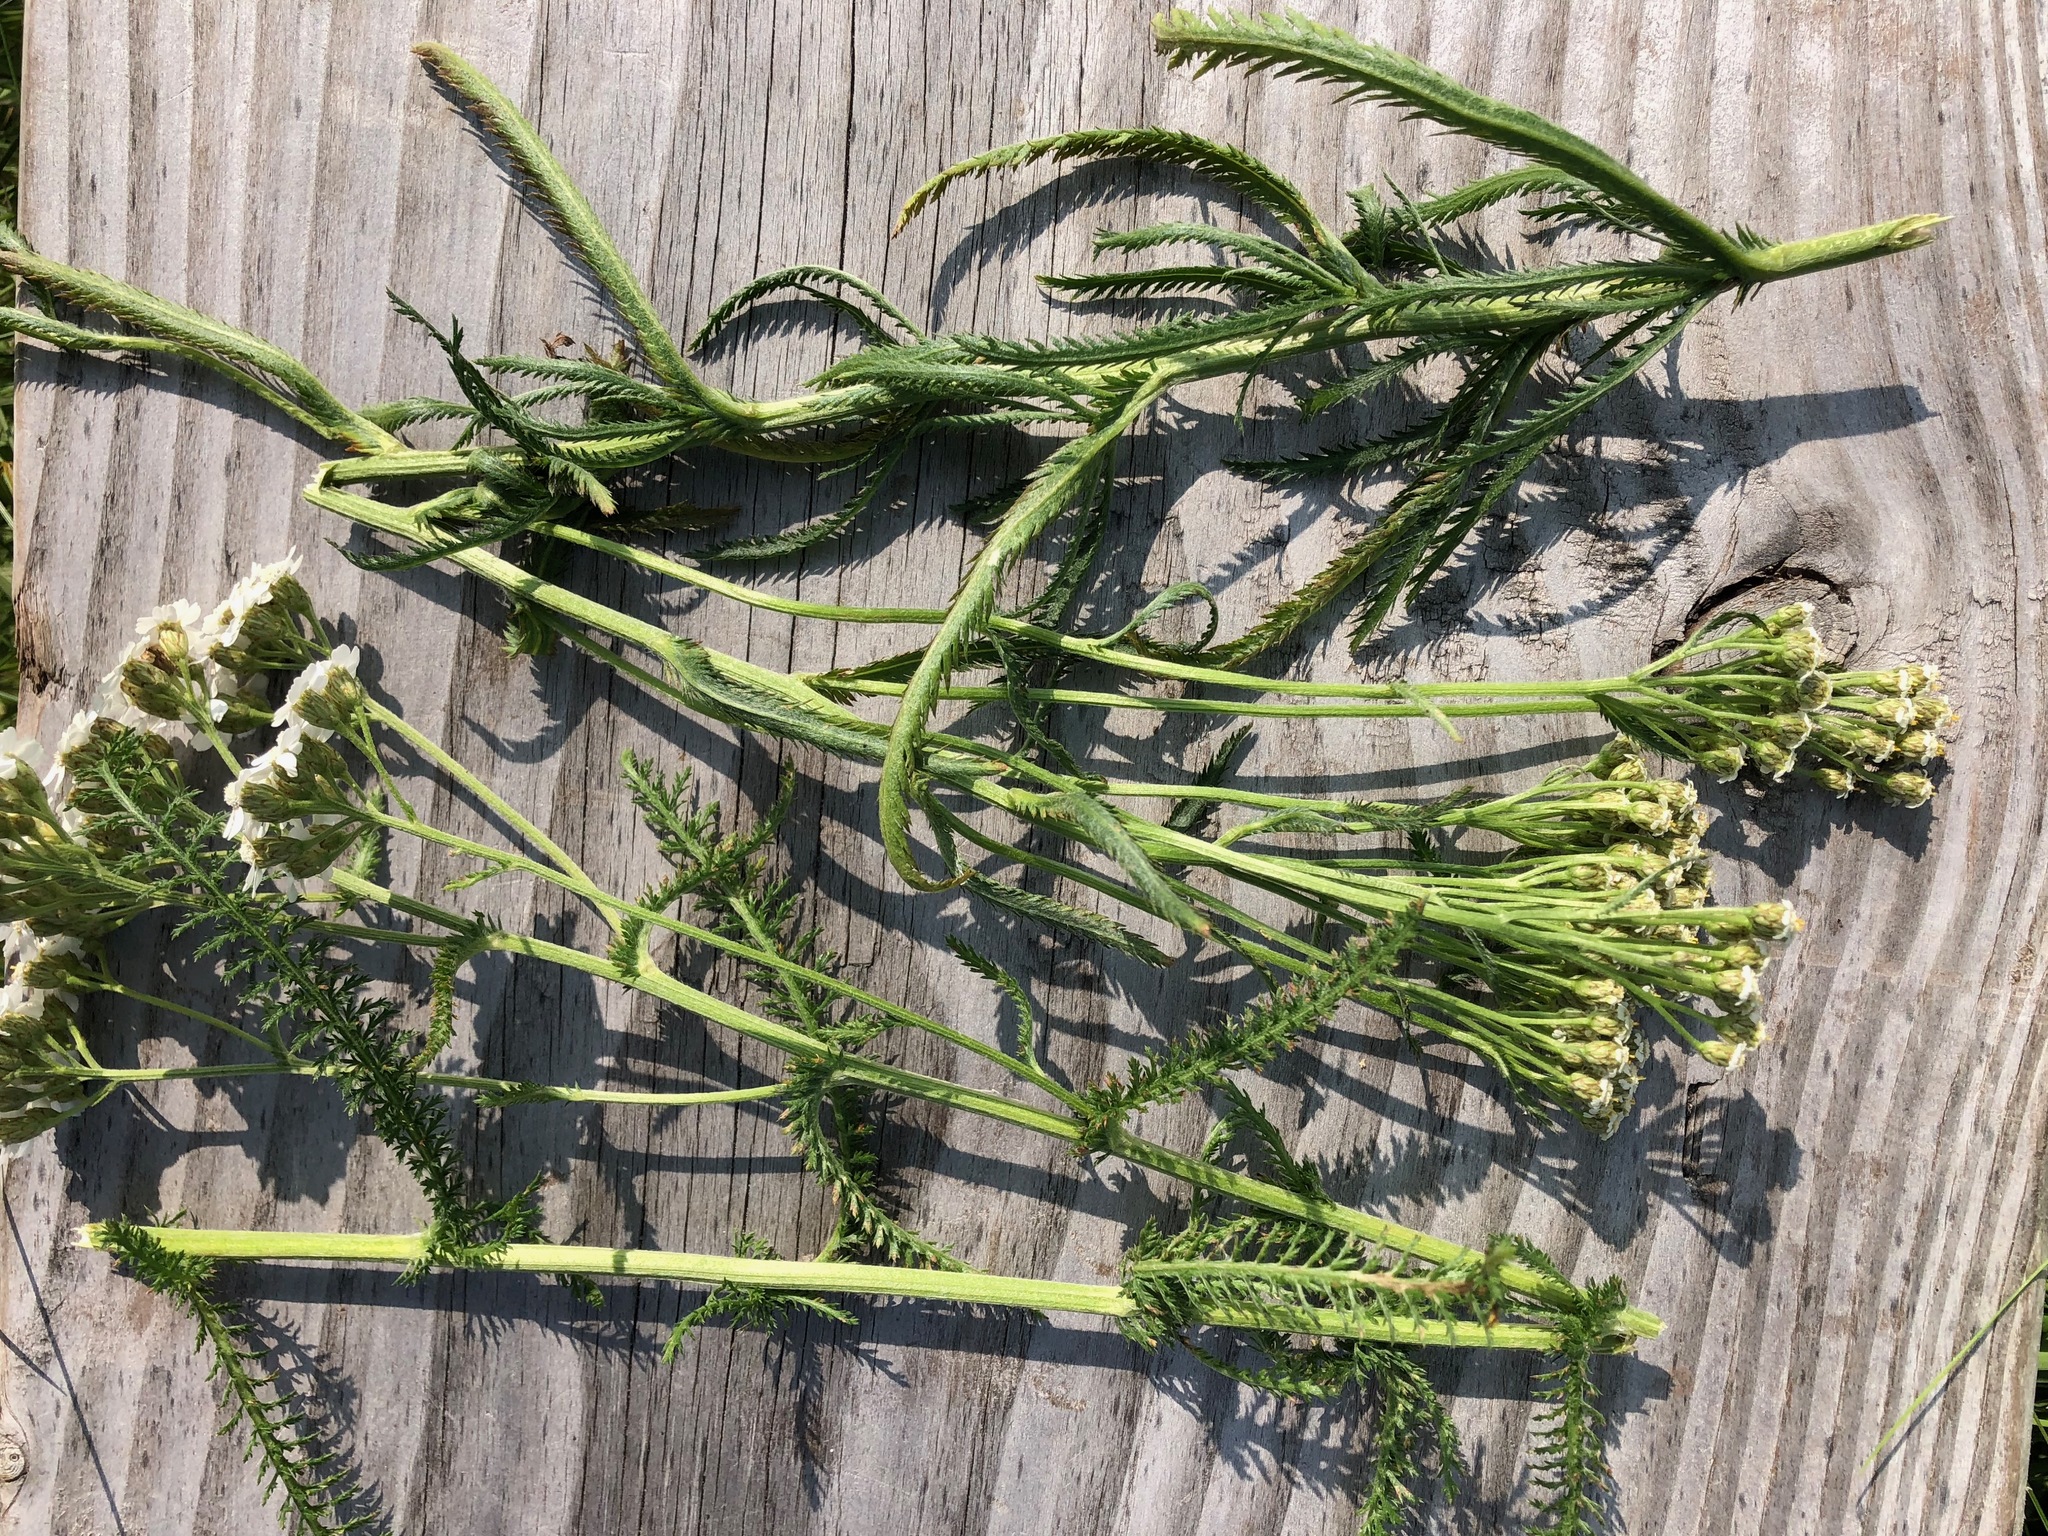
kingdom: Plantae
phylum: Tracheophyta
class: Magnoliopsida
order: Asterales
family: Asteraceae
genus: Achillea
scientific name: Achillea millefolium
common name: Yarrow
